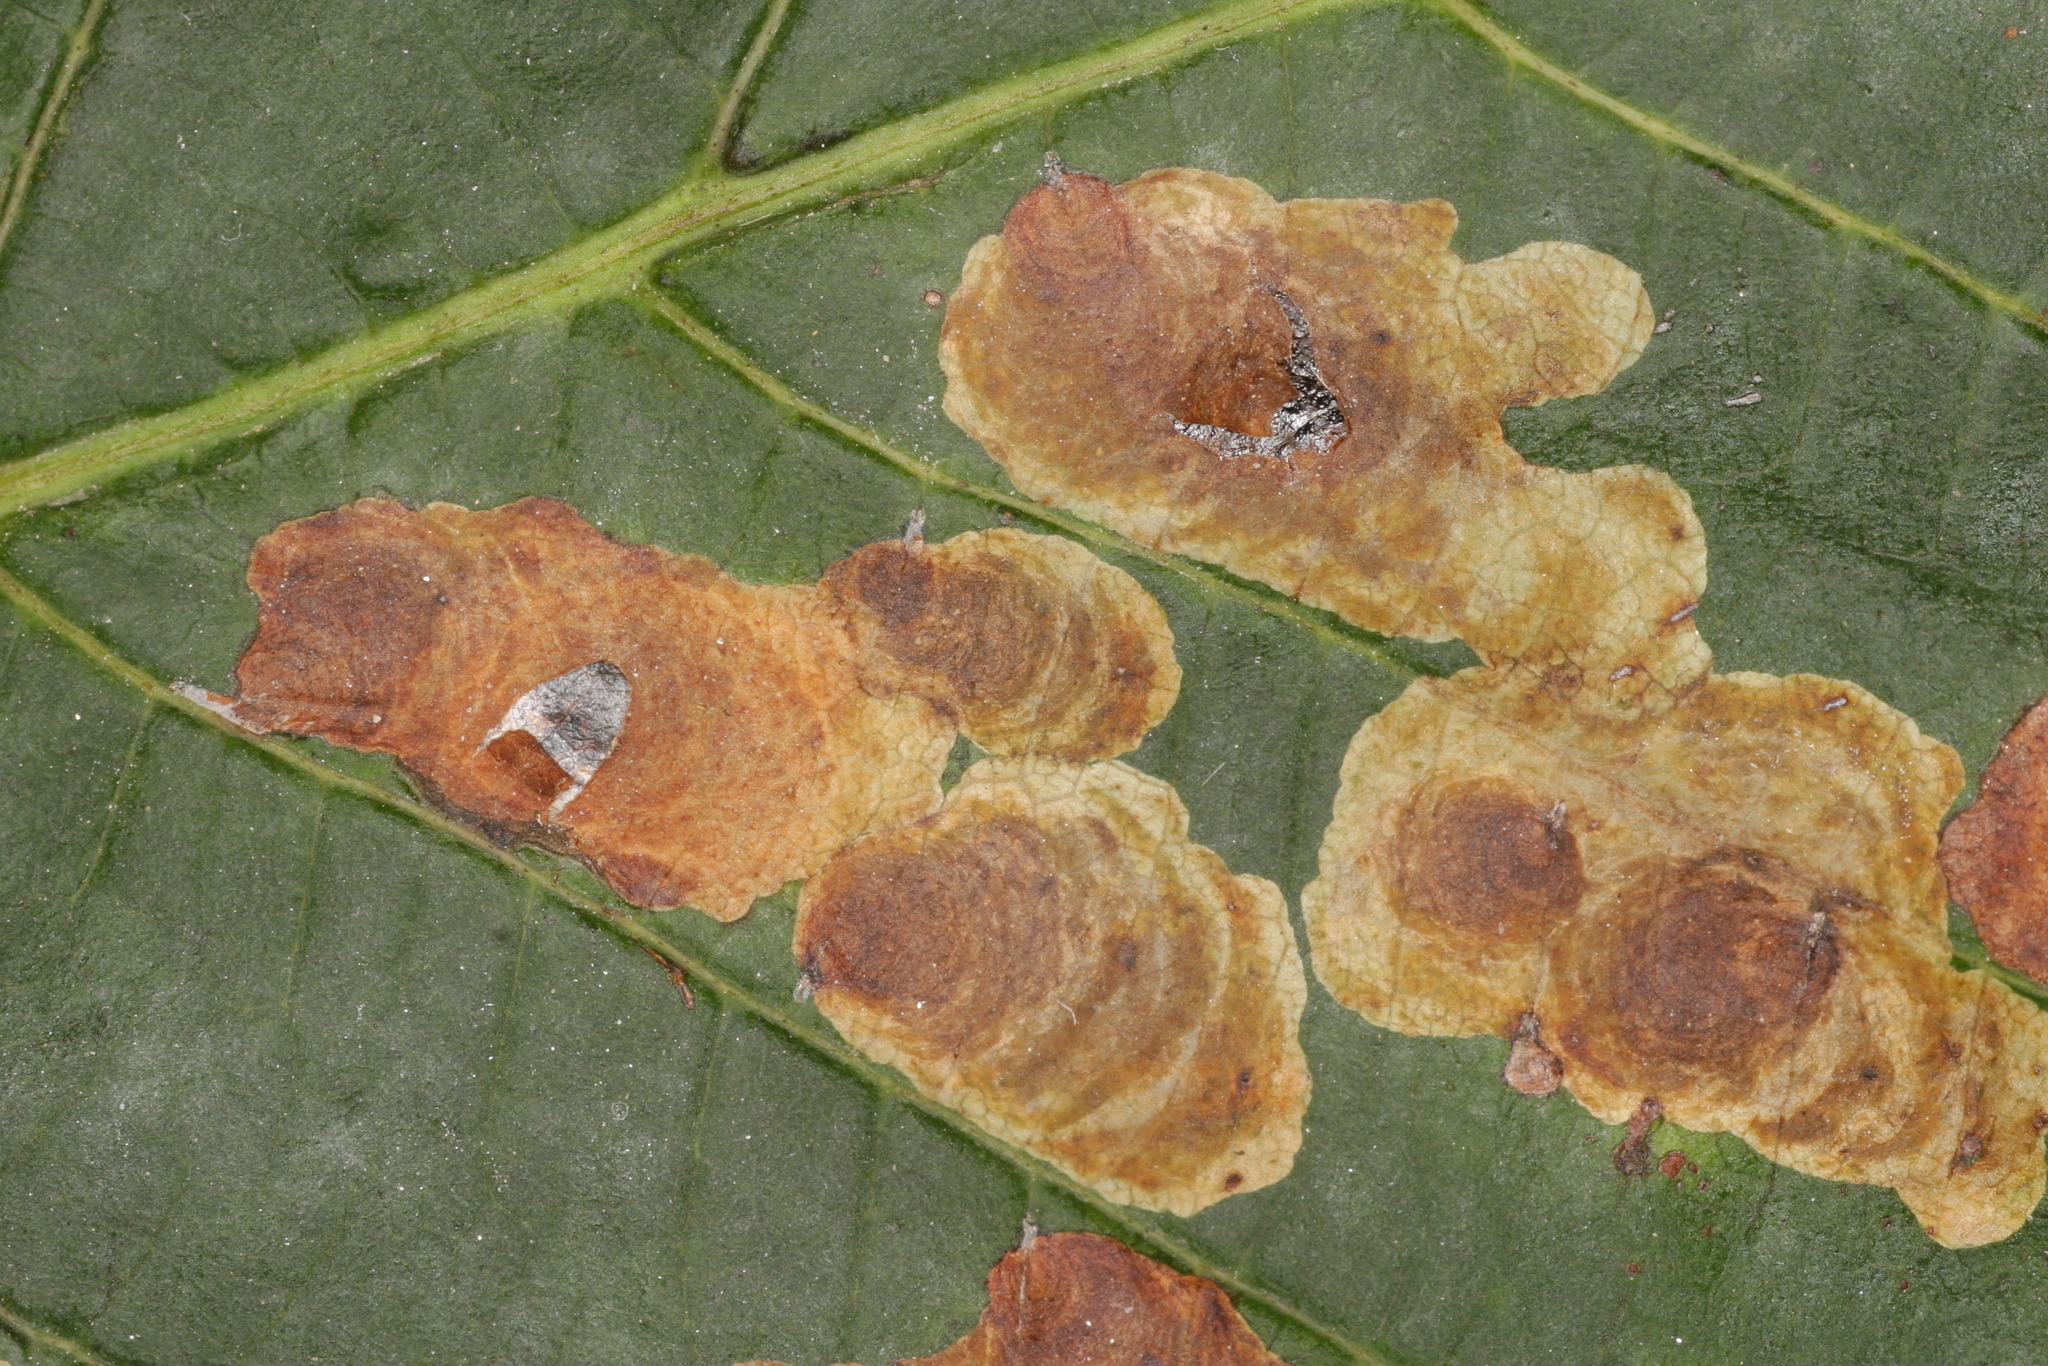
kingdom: Animalia
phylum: Arthropoda
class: Insecta
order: Lepidoptera
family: Gracillariidae
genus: Cameraria
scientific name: Cameraria ohridella
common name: Horse-chestnut leaf-miner
